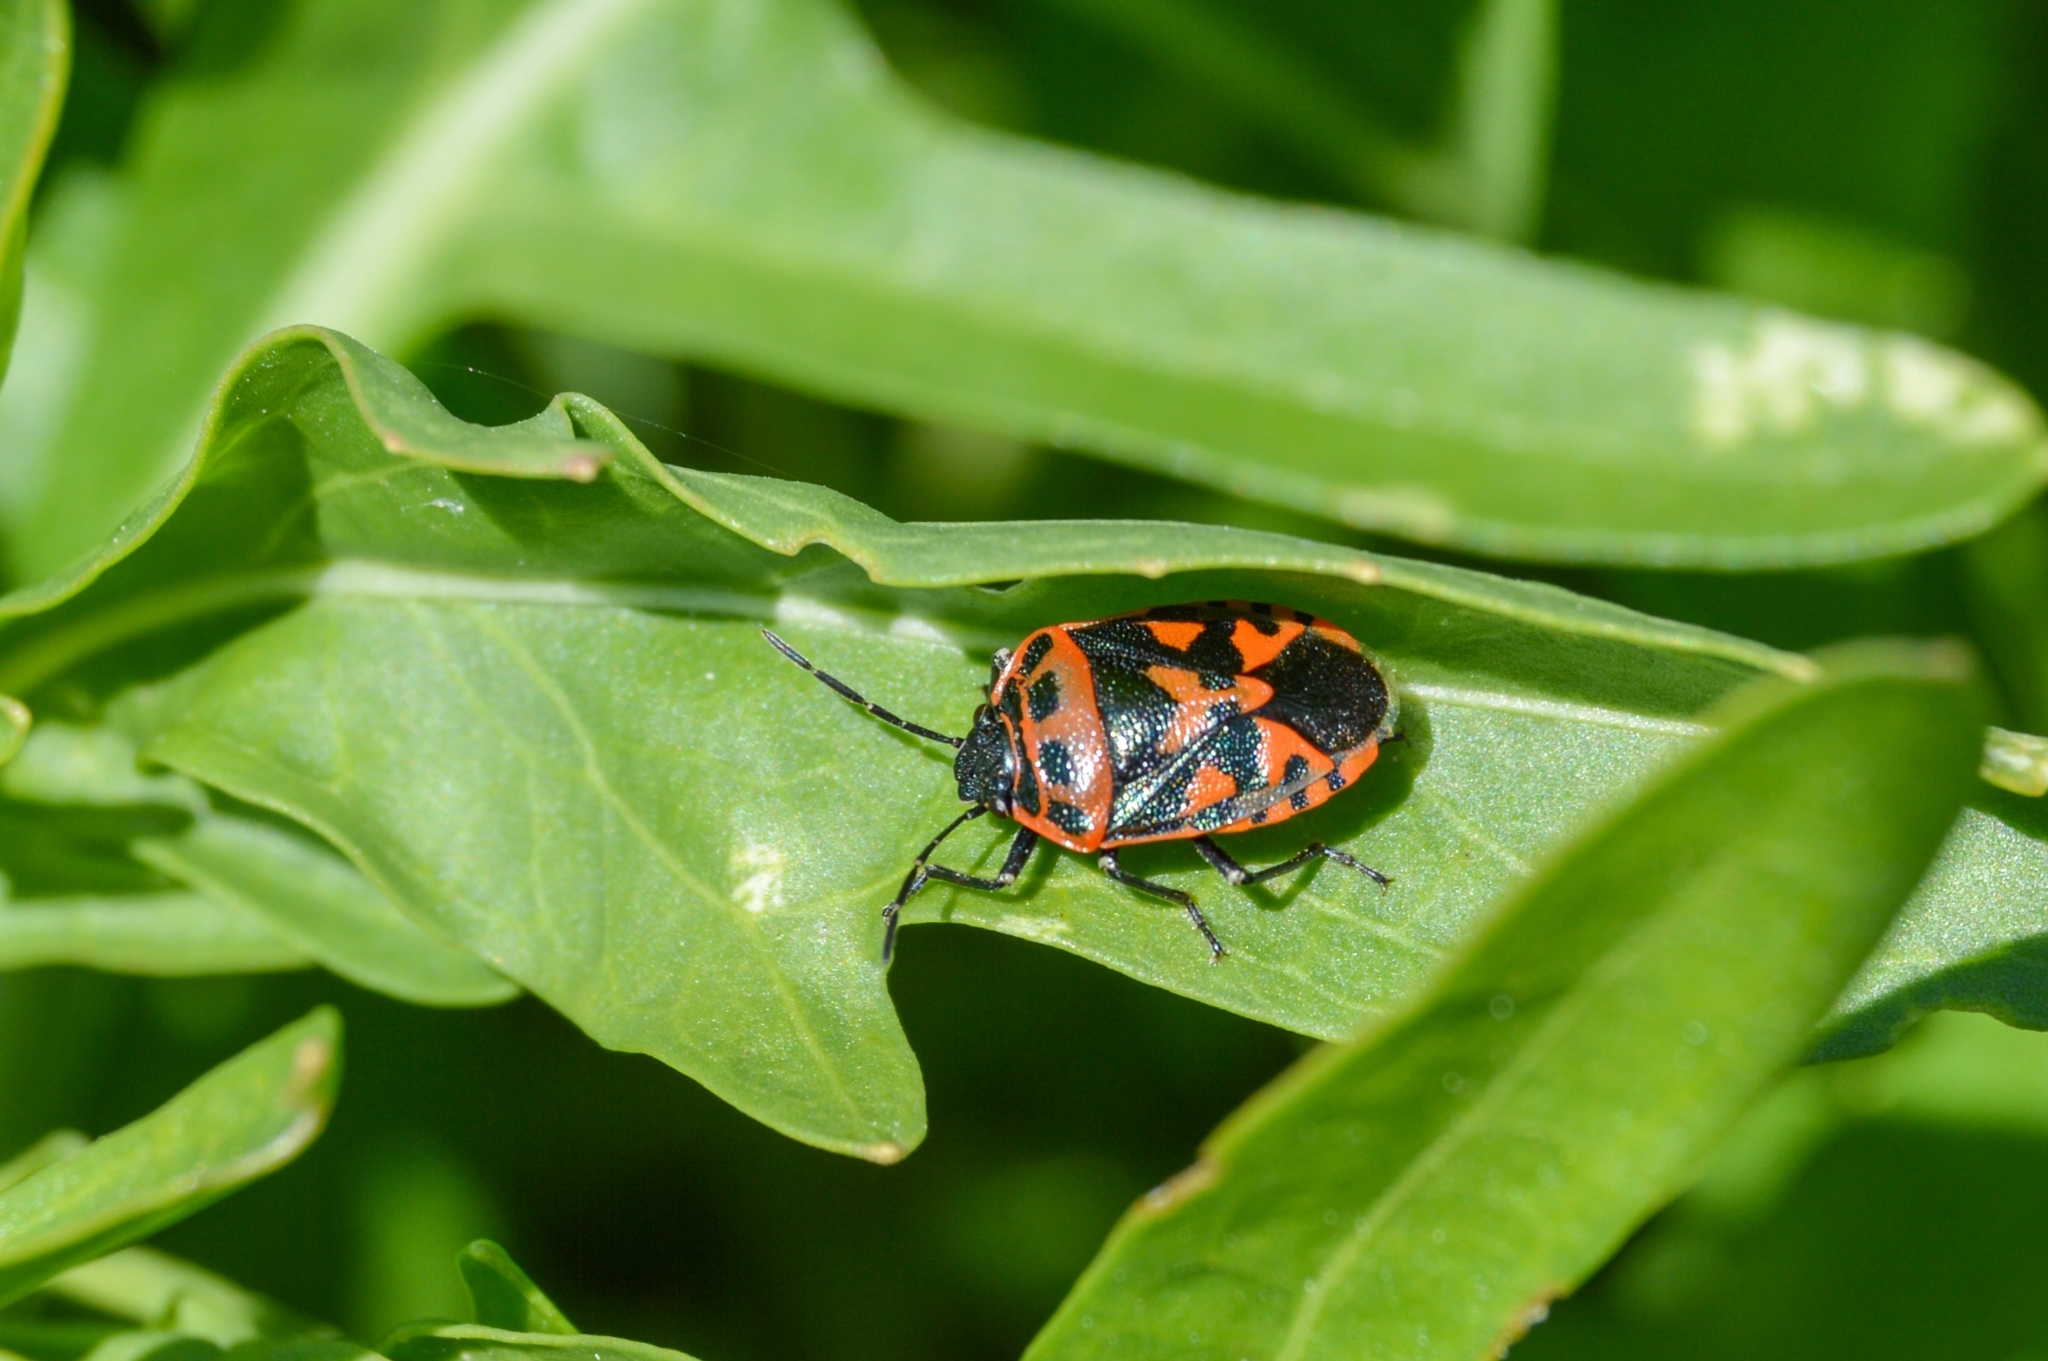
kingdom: Animalia
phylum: Arthropoda
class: Insecta
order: Hemiptera
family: Pentatomidae
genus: Eurydema
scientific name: Eurydema ornata
